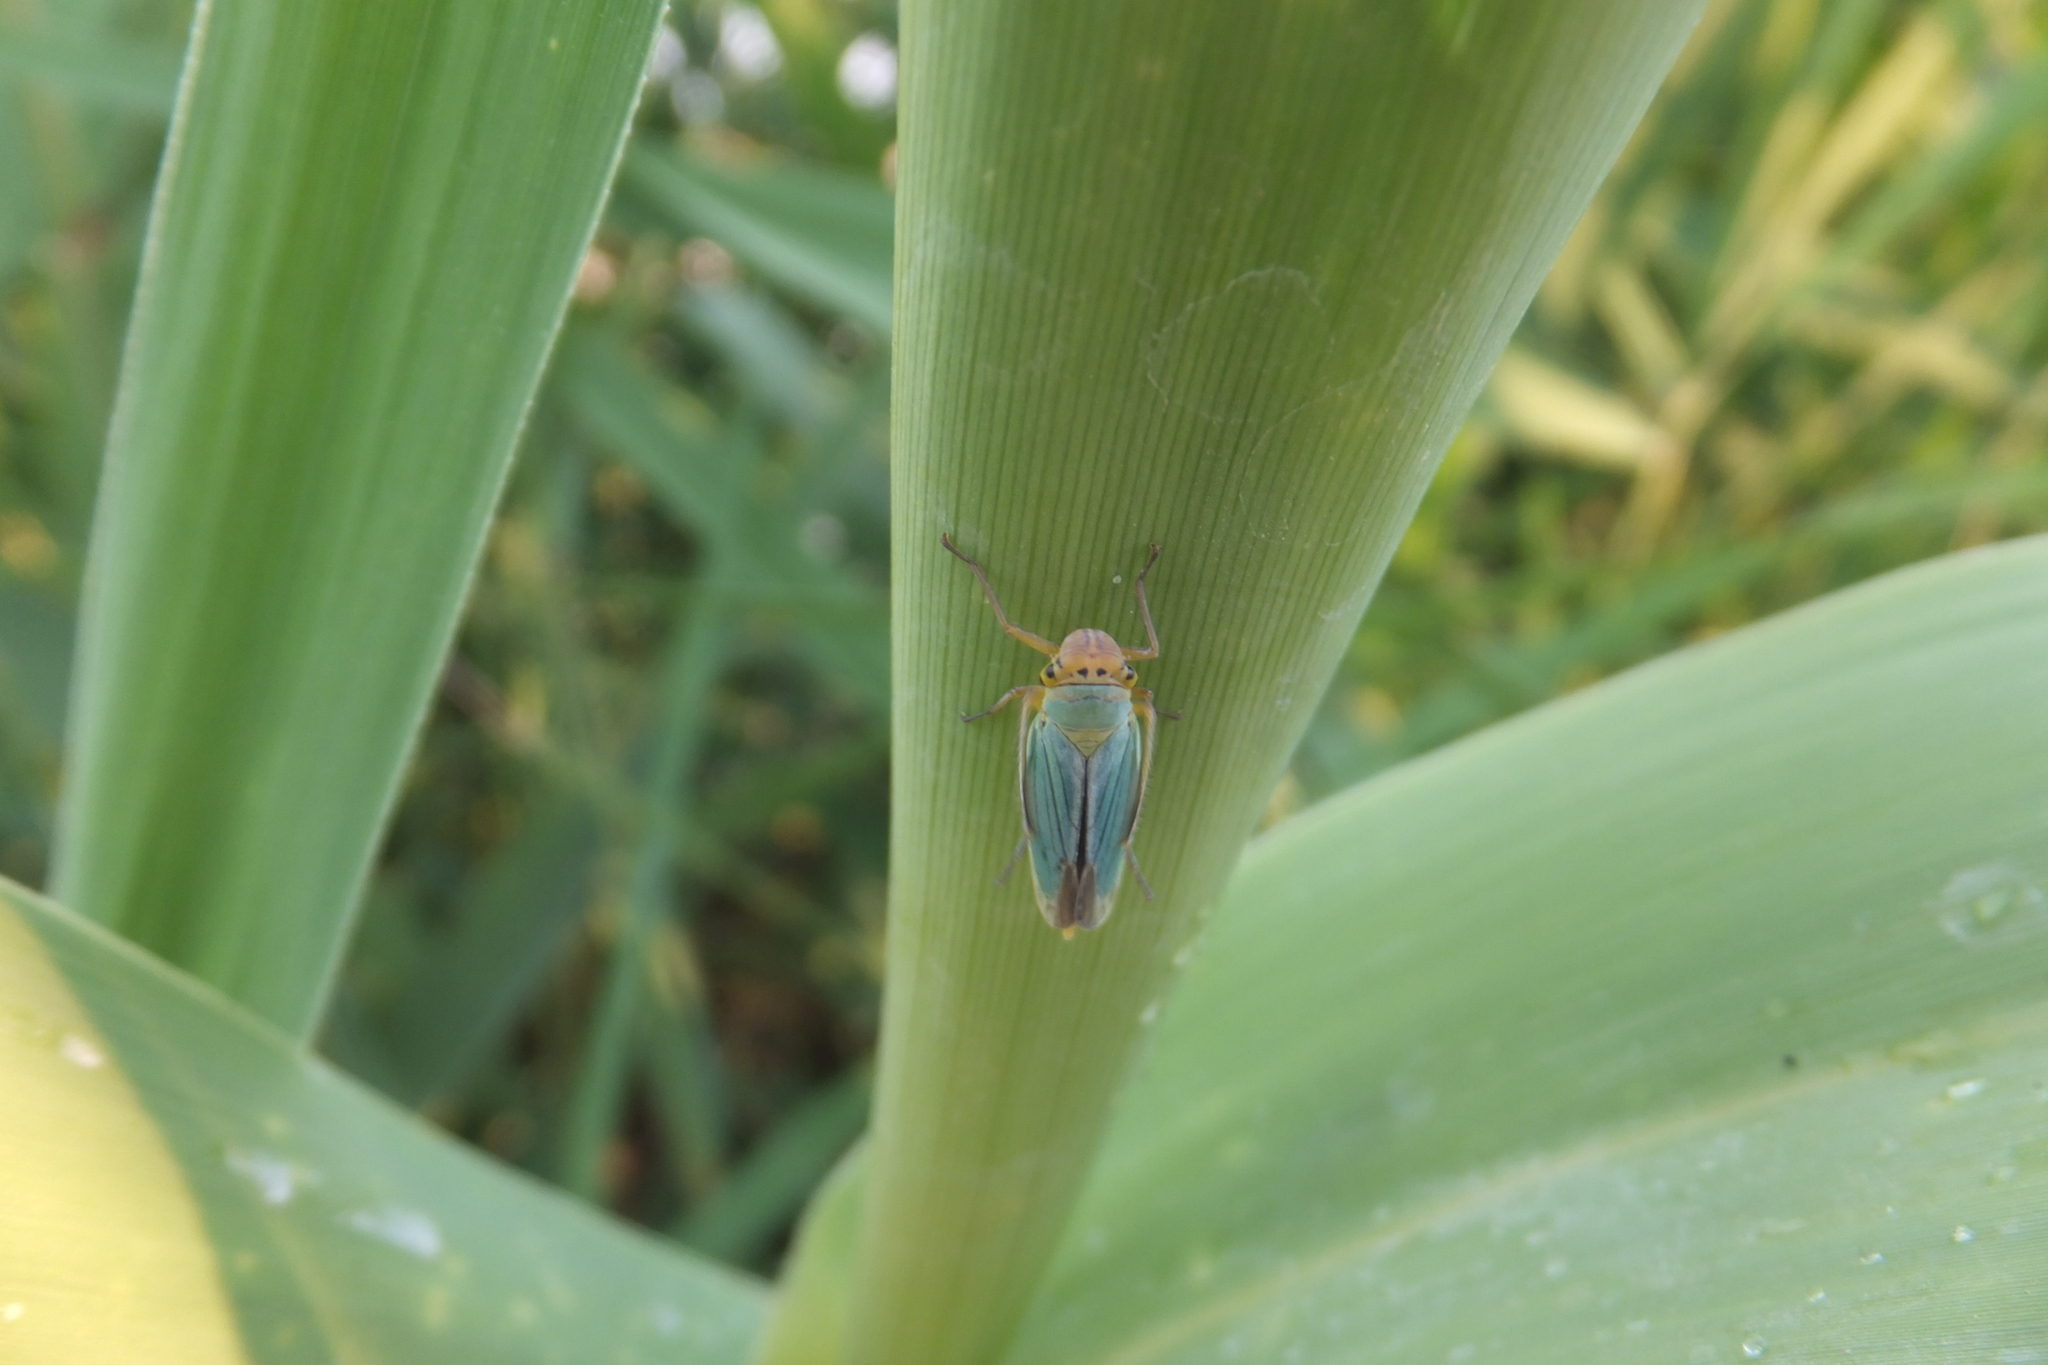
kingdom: Animalia
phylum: Arthropoda
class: Insecta
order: Hemiptera
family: Cicadellidae
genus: Cicadella
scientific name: Cicadella viridis
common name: Leafhopper
